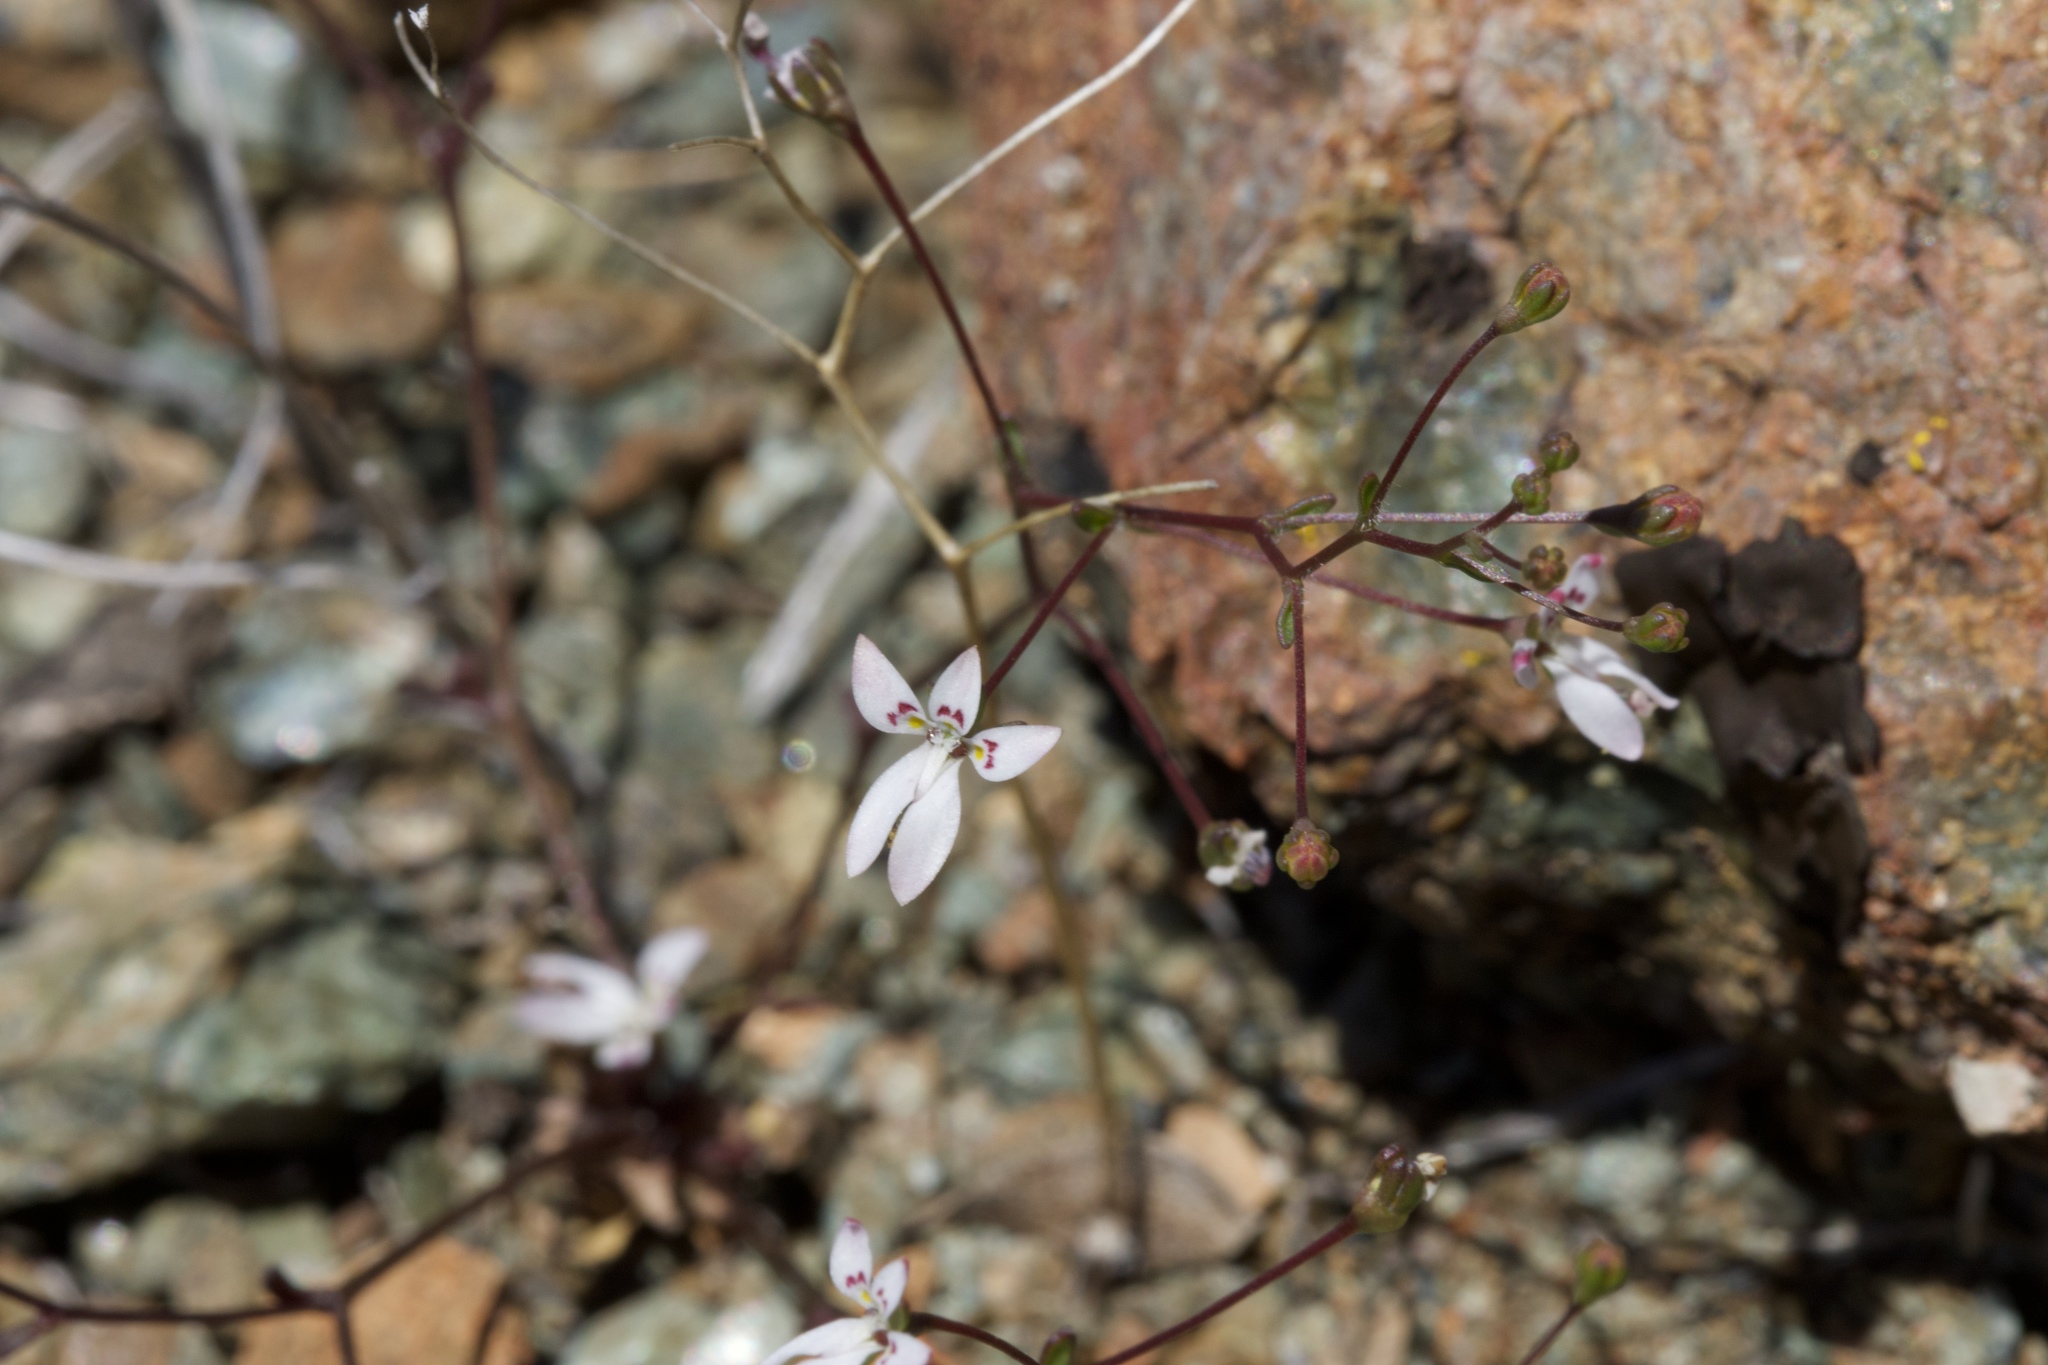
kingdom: Plantae
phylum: Tracheophyta
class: Magnoliopsida
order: Asterales
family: Campanulaceae
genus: Nemacladus
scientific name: Nemacladus montanus
